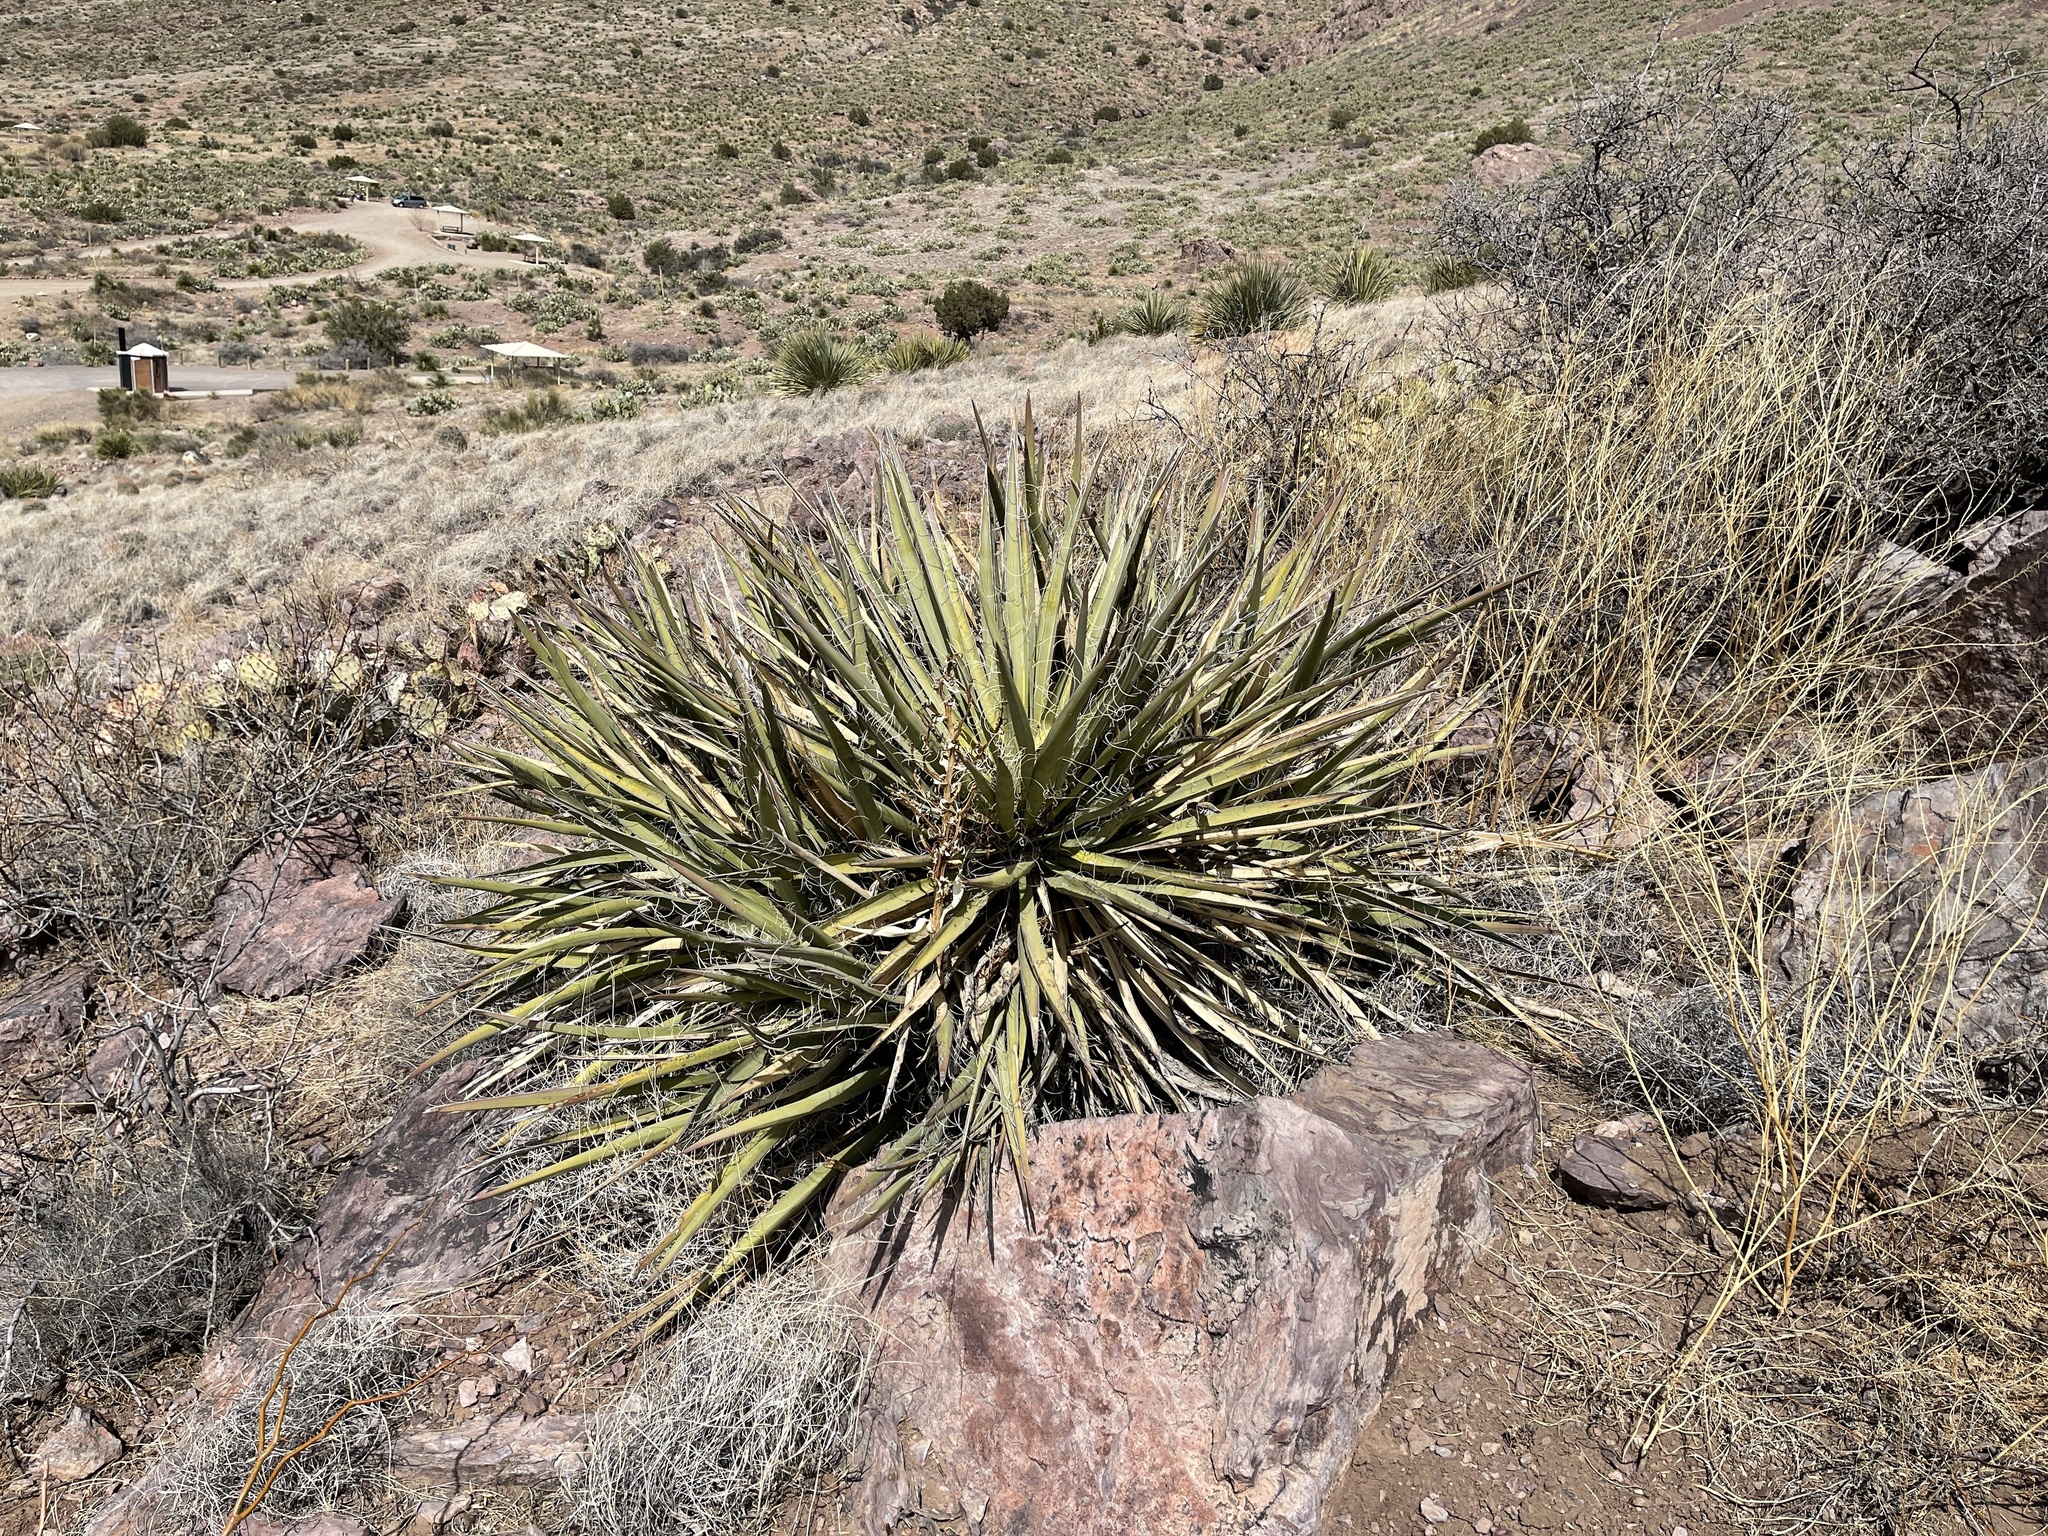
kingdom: Plantae
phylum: Tracheophyta
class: Liliopsida
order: Asparagales
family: Asparagaceae
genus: Yucca
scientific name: Yucca baccata
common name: Banana yucca
